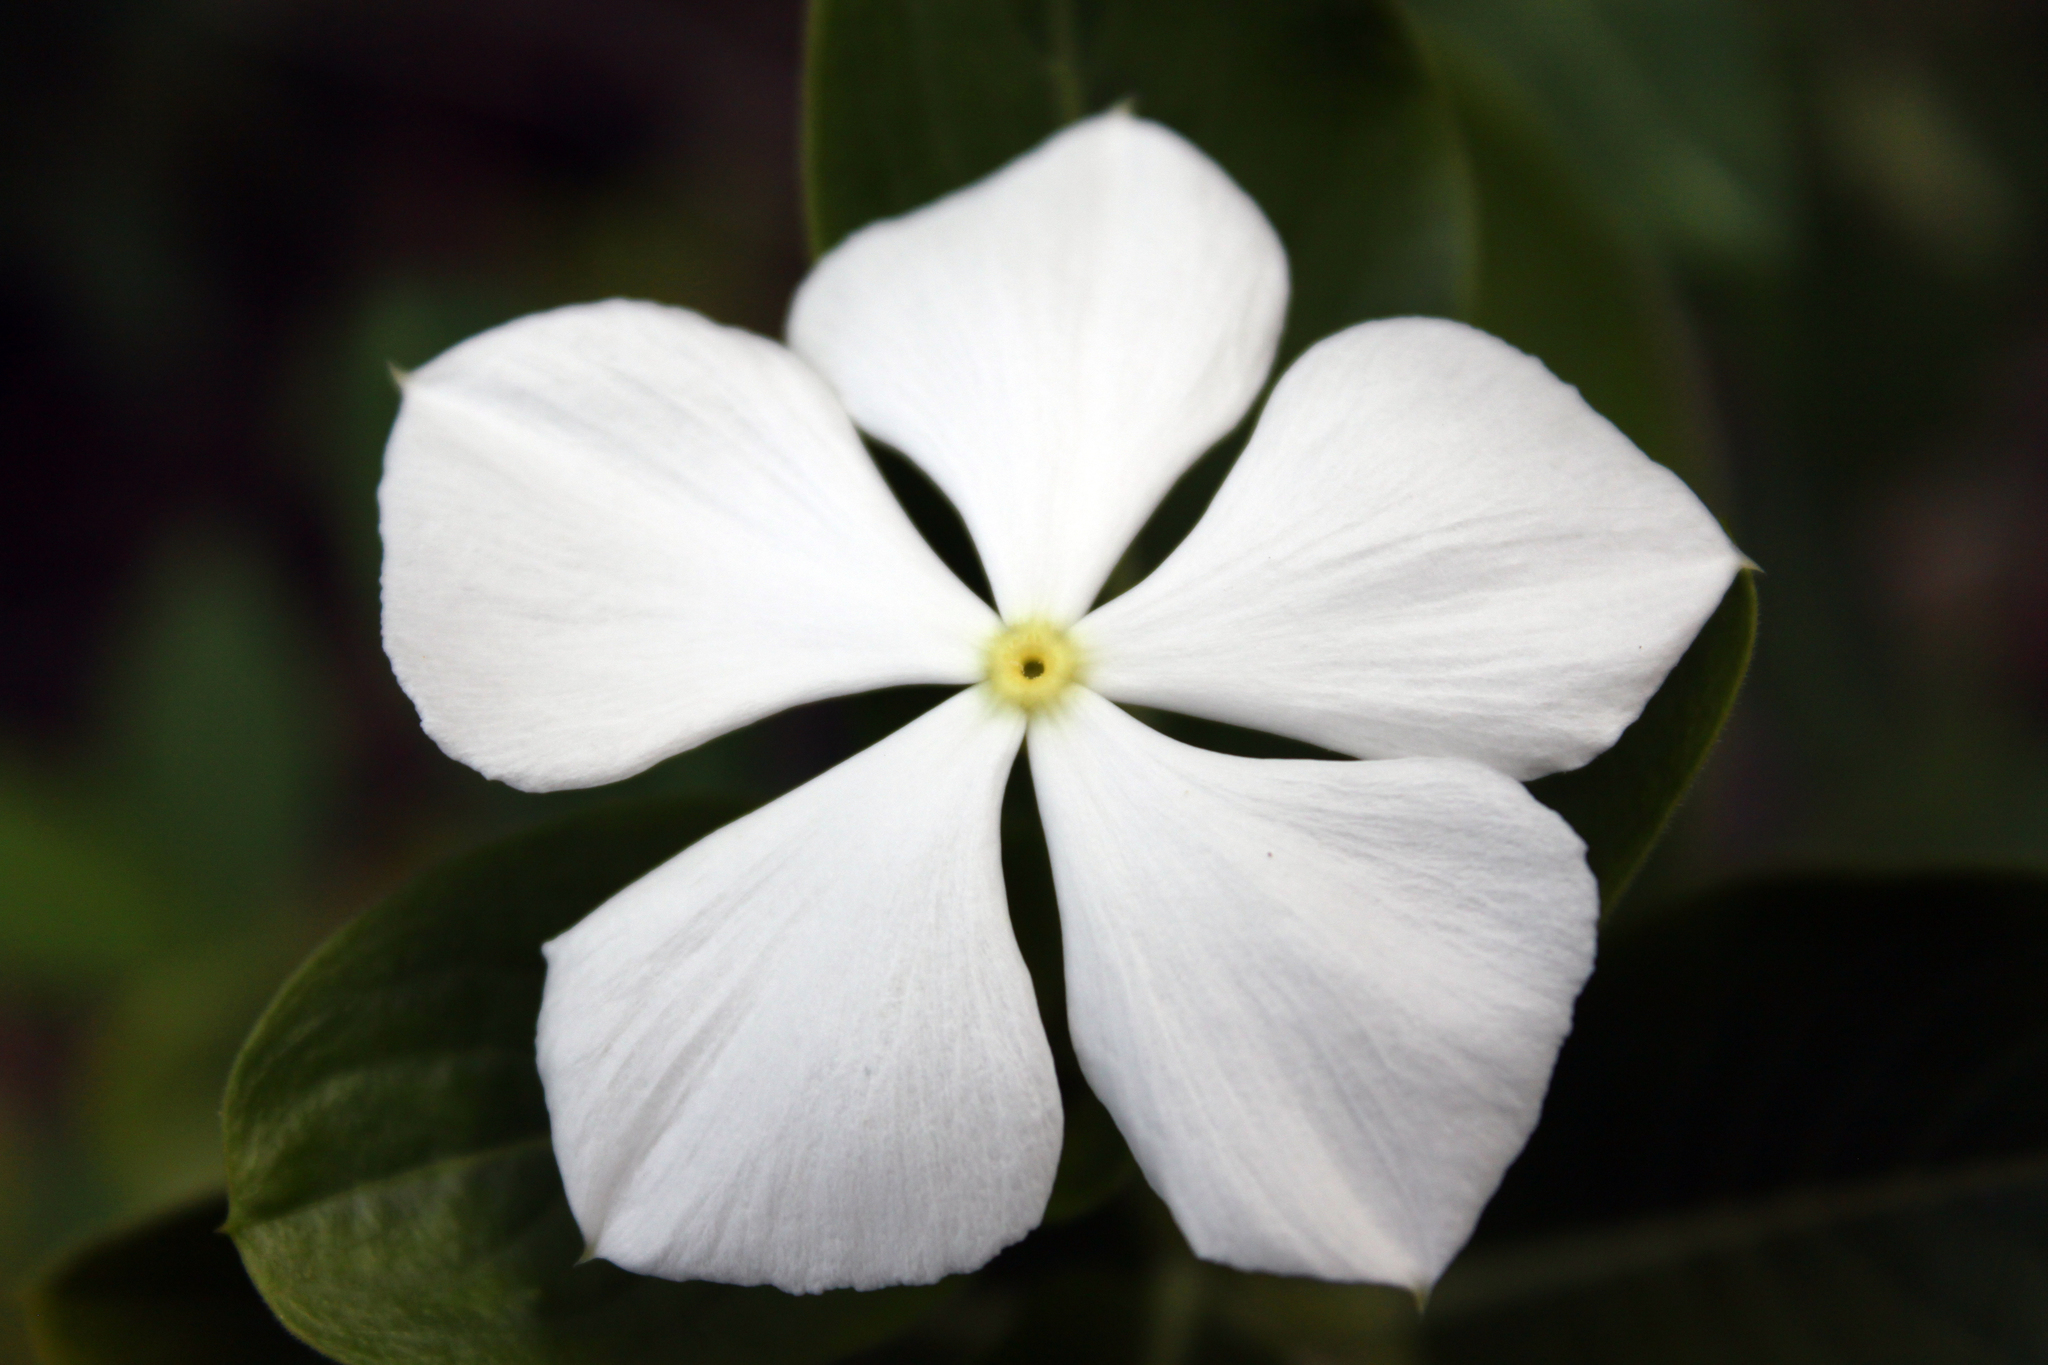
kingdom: Plantae
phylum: Tracheophyta
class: Magnoliopsida
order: Gentianales
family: Apocynaceae
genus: Catharanthus
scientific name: Catharanthus roseus
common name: Madagascar periwinkle
